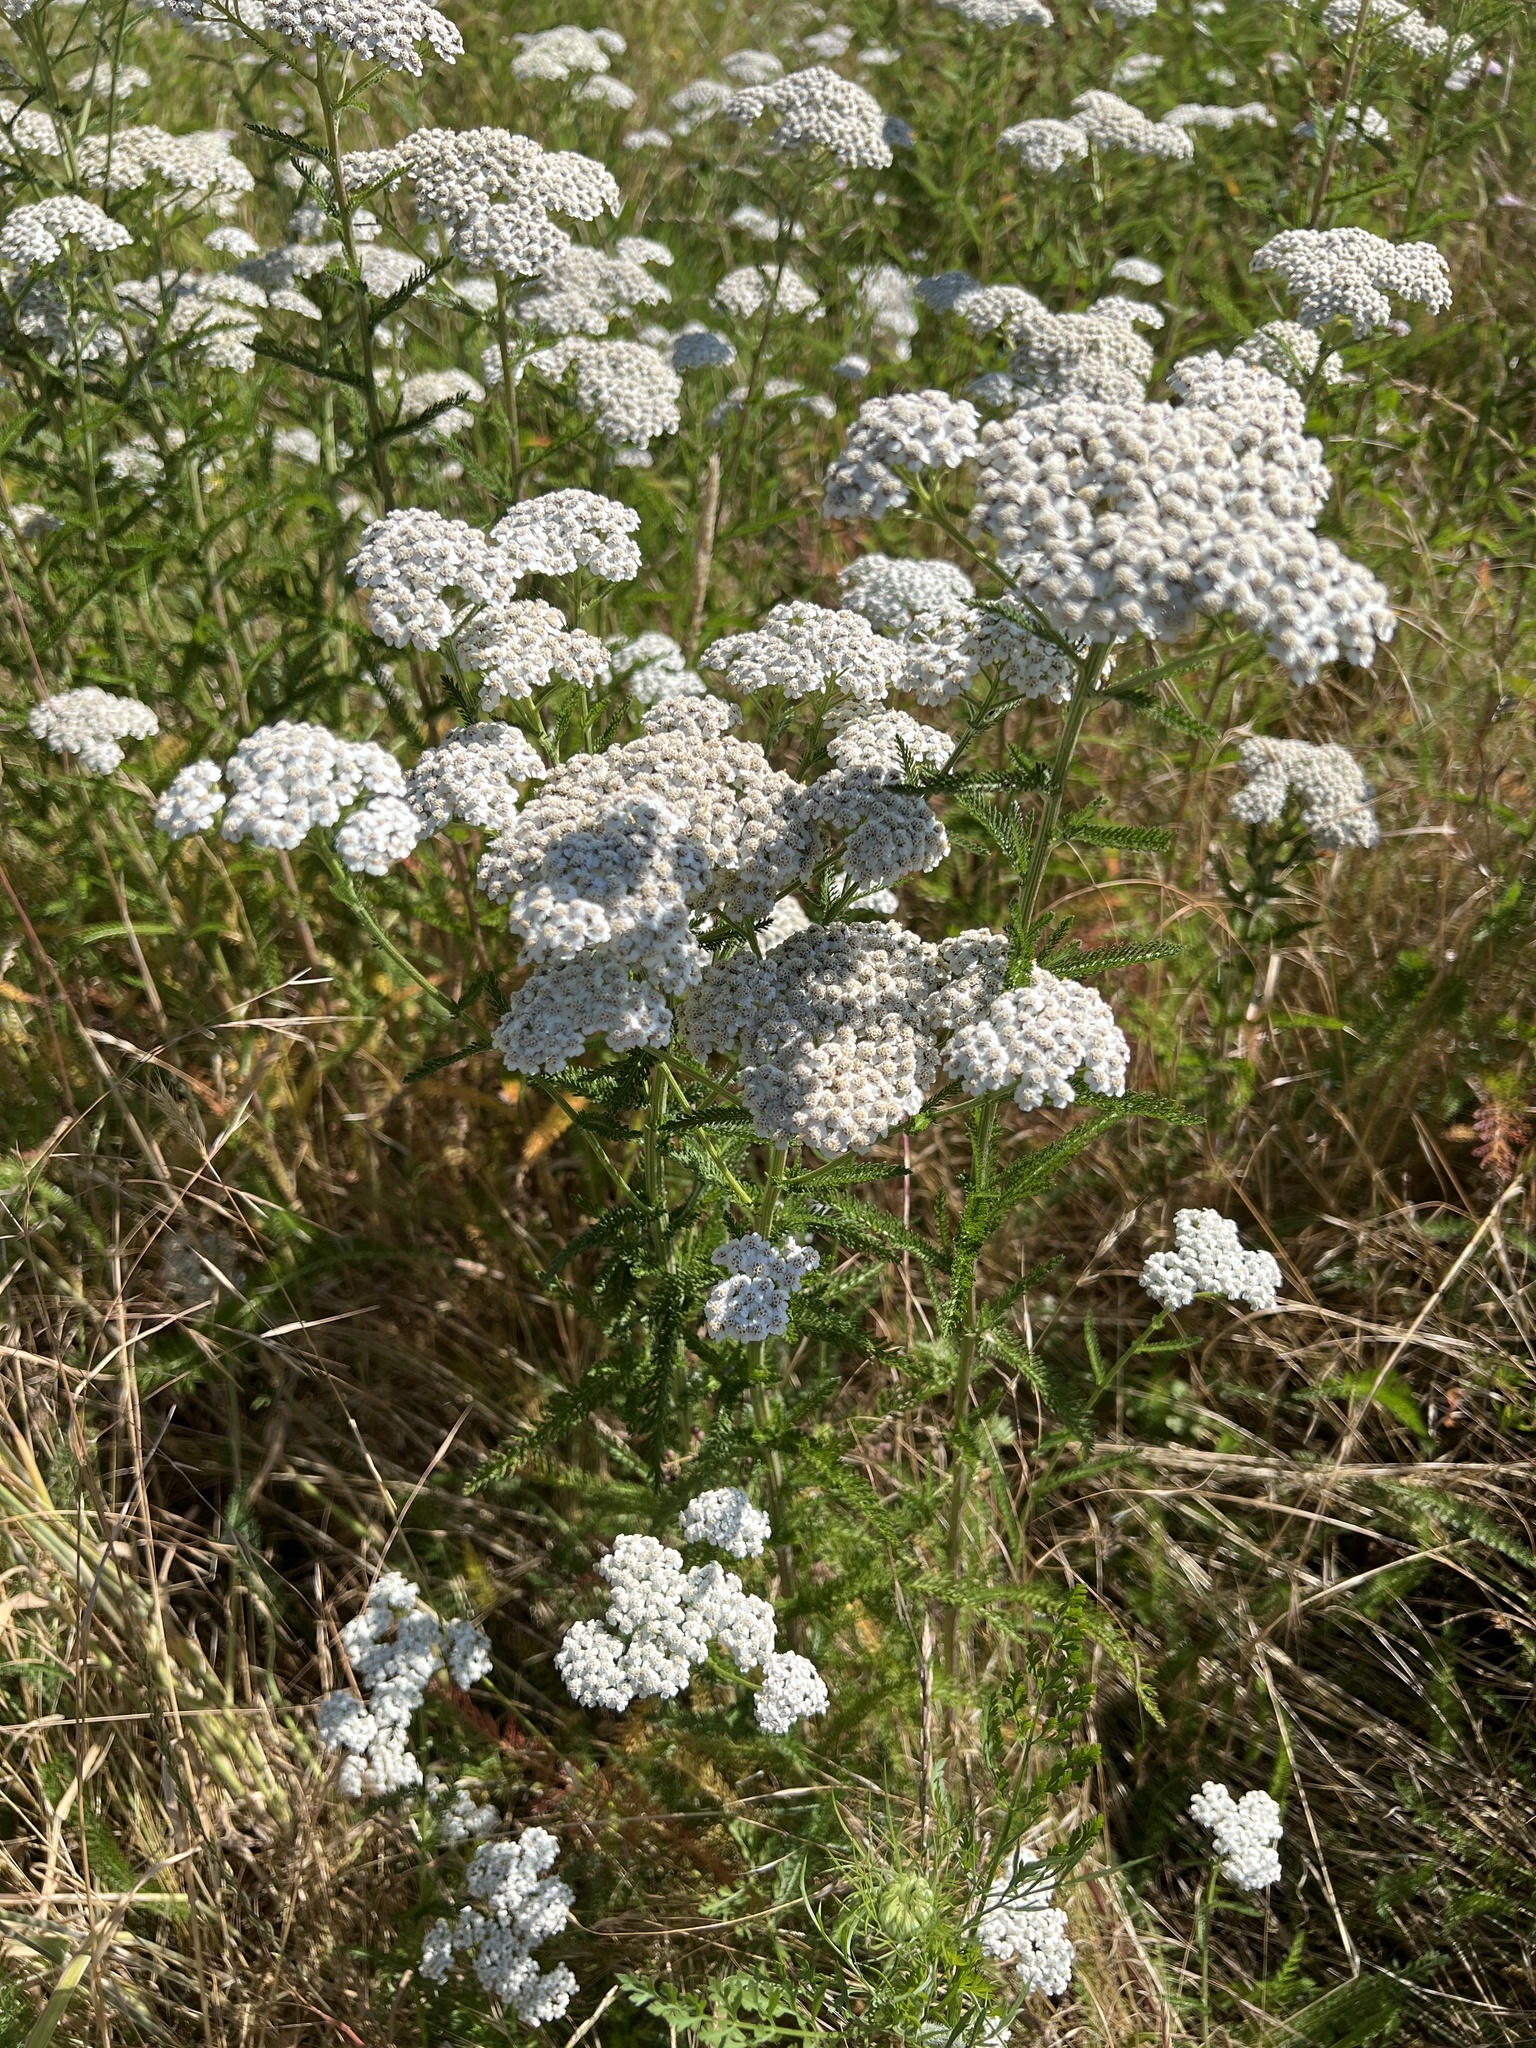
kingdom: Plantae
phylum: Tracheophyta
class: Magnoliopsida
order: Asterales
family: Asteraceae
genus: Achillea
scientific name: Achillea millefolium
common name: Yarrow
